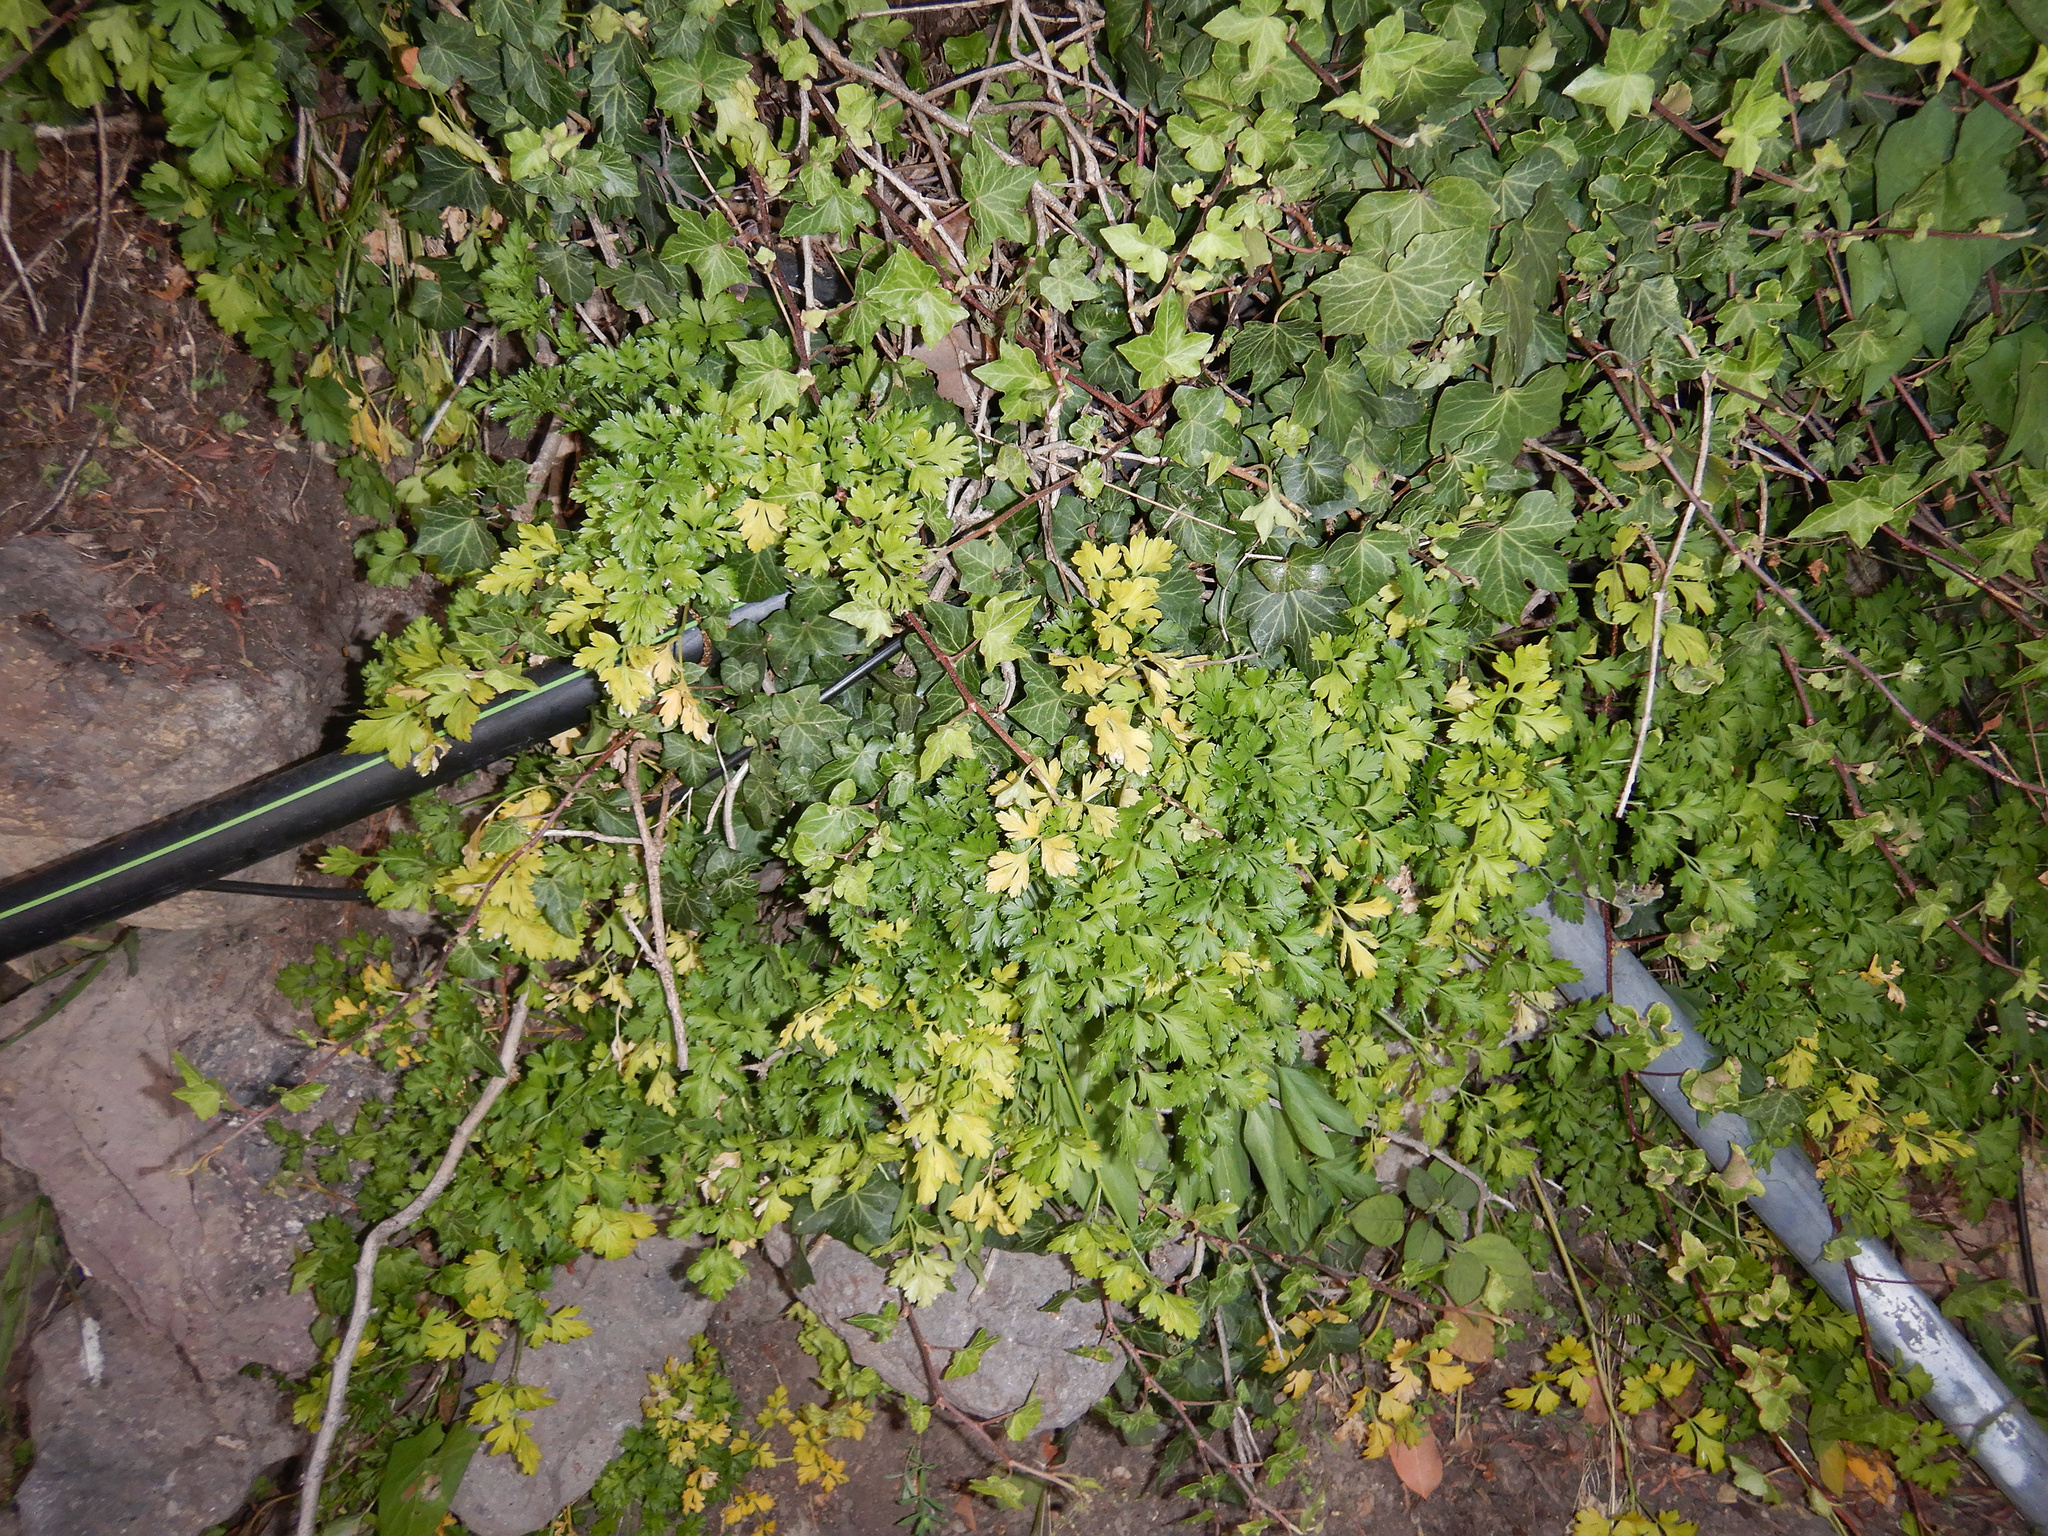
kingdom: Plantae
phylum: Tracheophyta
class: Magnoliopsida
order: Apiales
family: Apiaceae
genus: Petroselinum
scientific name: Petroselinum crispum
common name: Parsley
